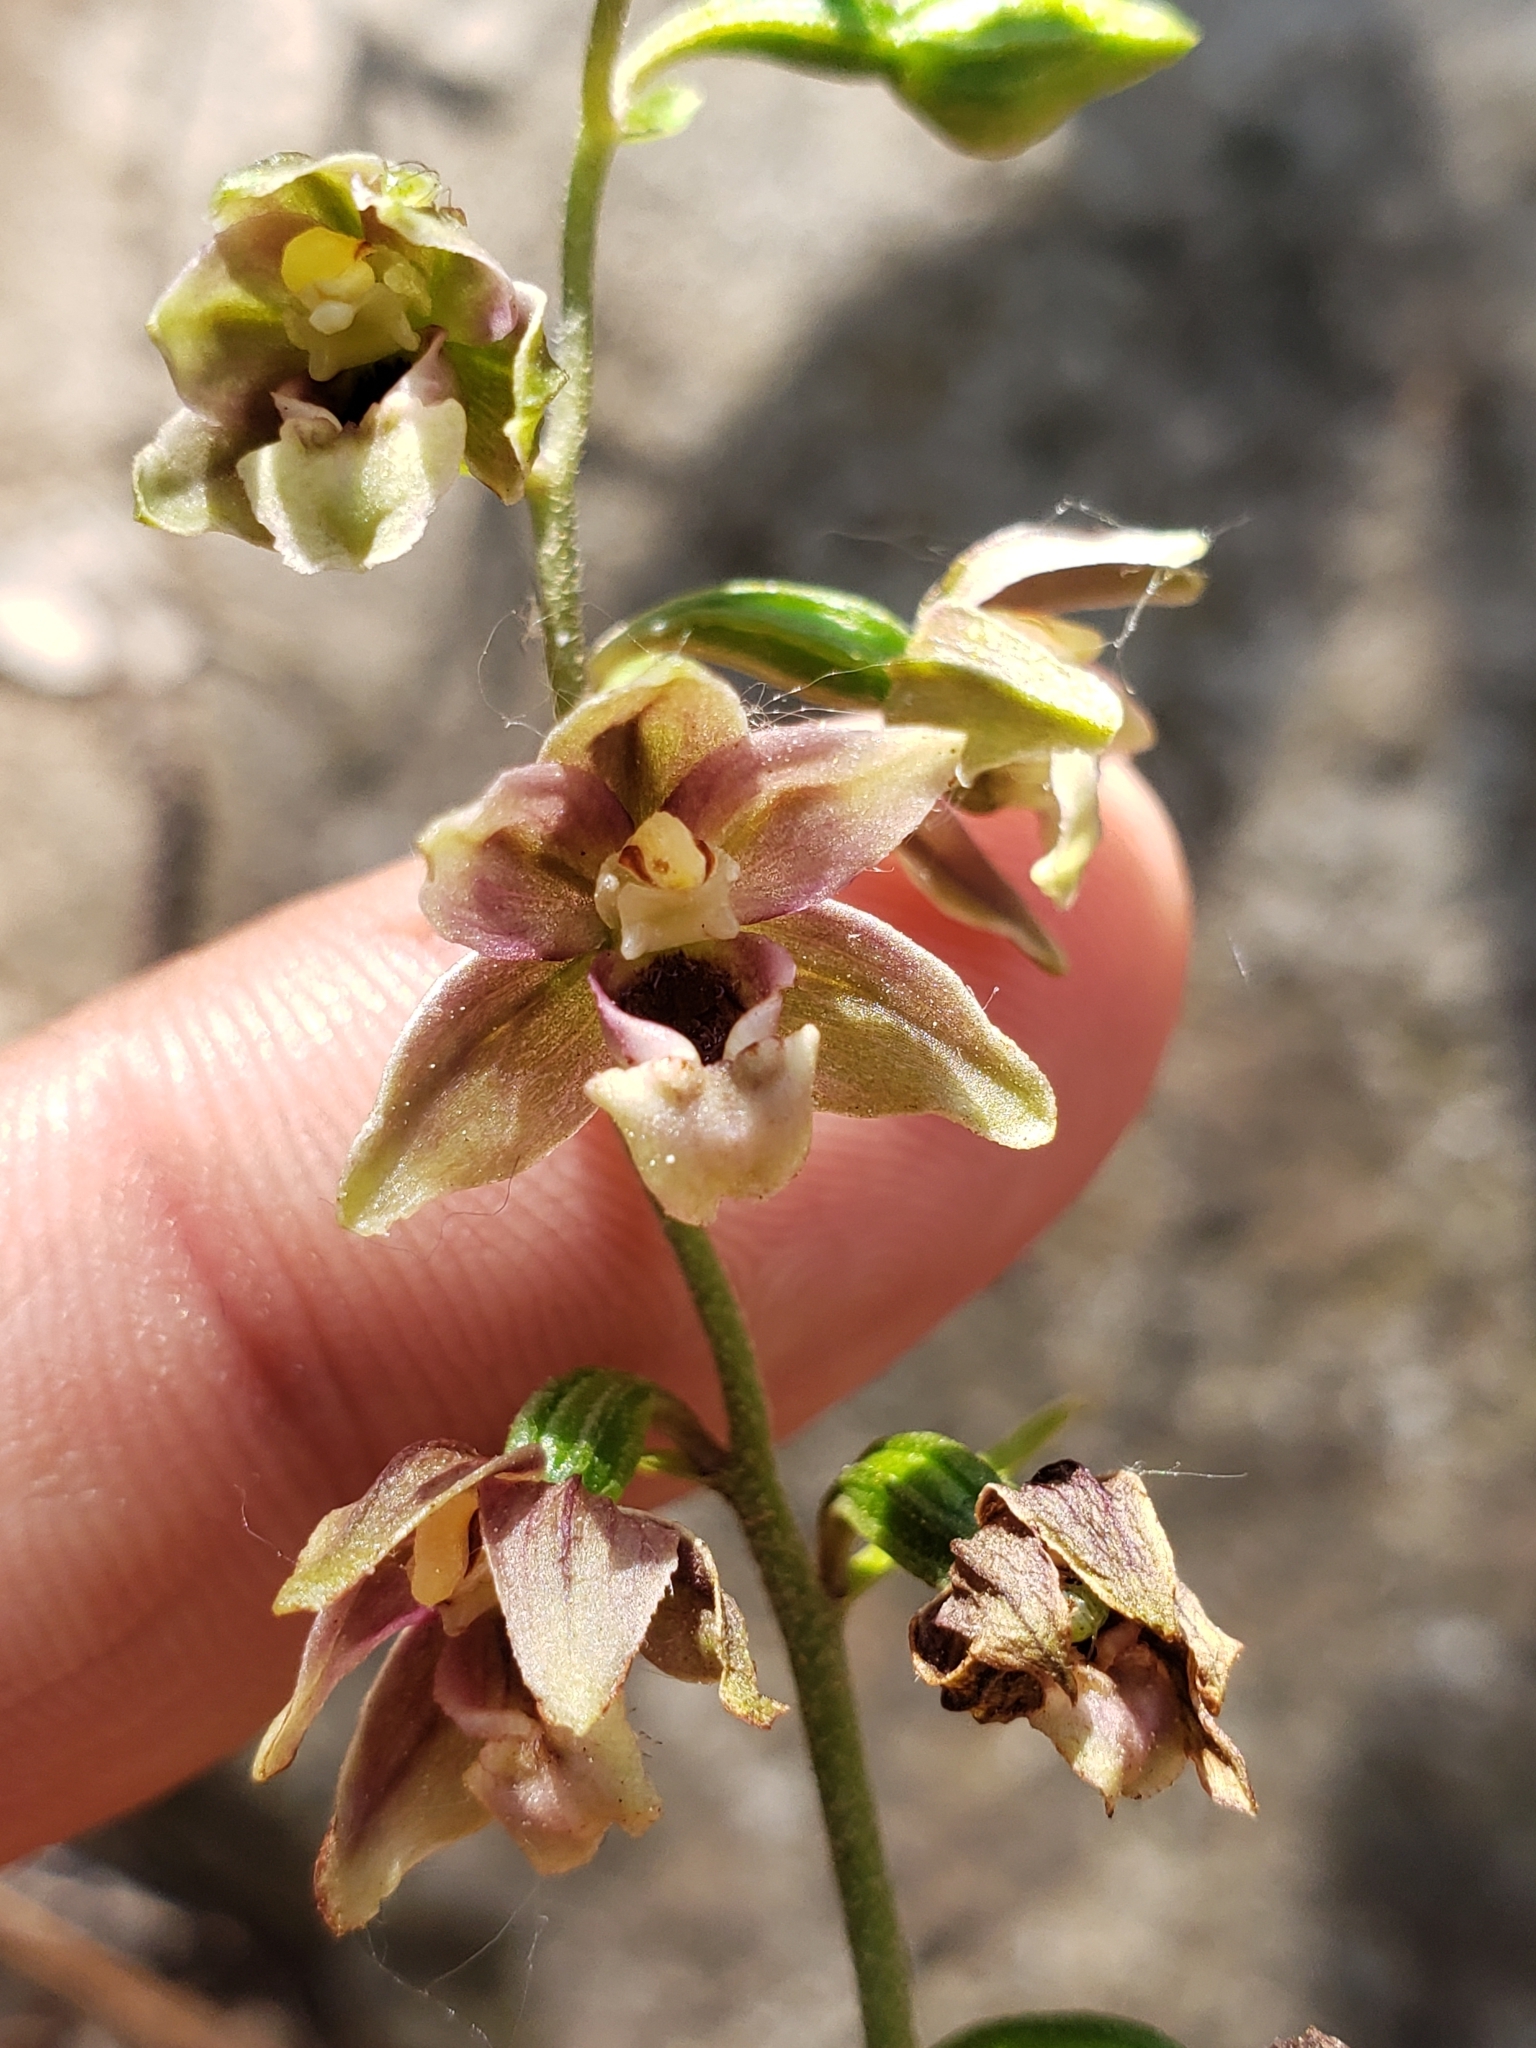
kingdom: Plantae
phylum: Tracheophyta
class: Liliopsida
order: Asparagales
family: Orchidaceae
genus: Epipactis
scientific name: Epipactis helleborine
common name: Broad-leaved helleborine
